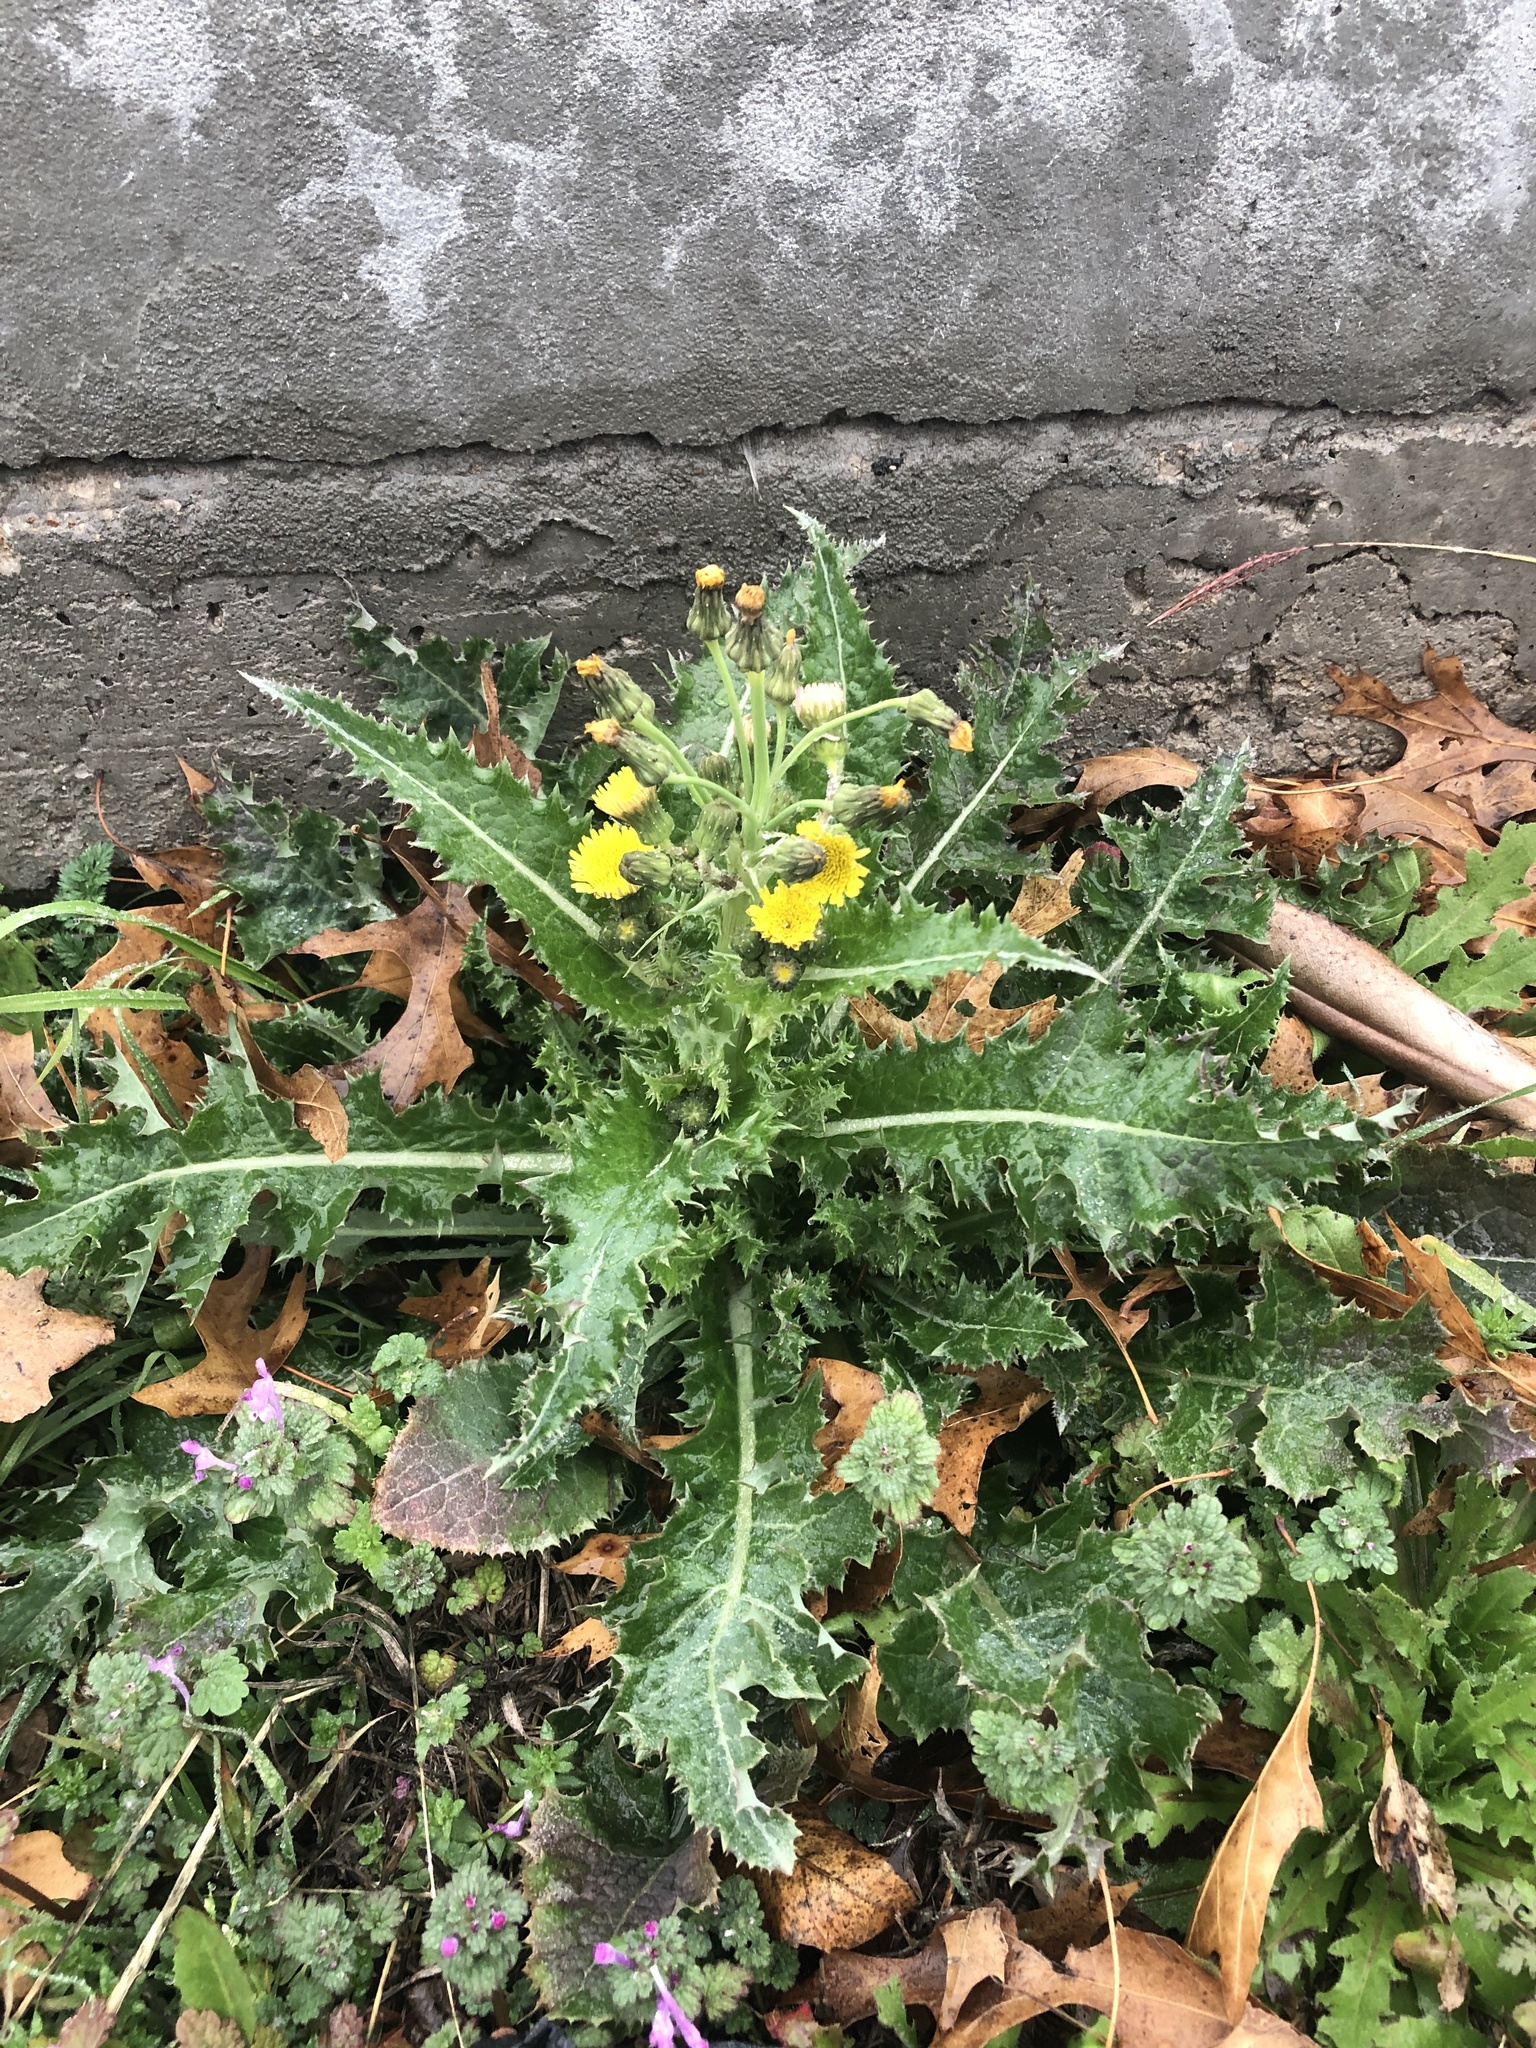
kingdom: Plantae
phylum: Tracheophyta
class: Magnoliopsida
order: Asterales
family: Asteraceae
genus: Sonchus
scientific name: Sonchus asper
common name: Prickly sow-thistle
